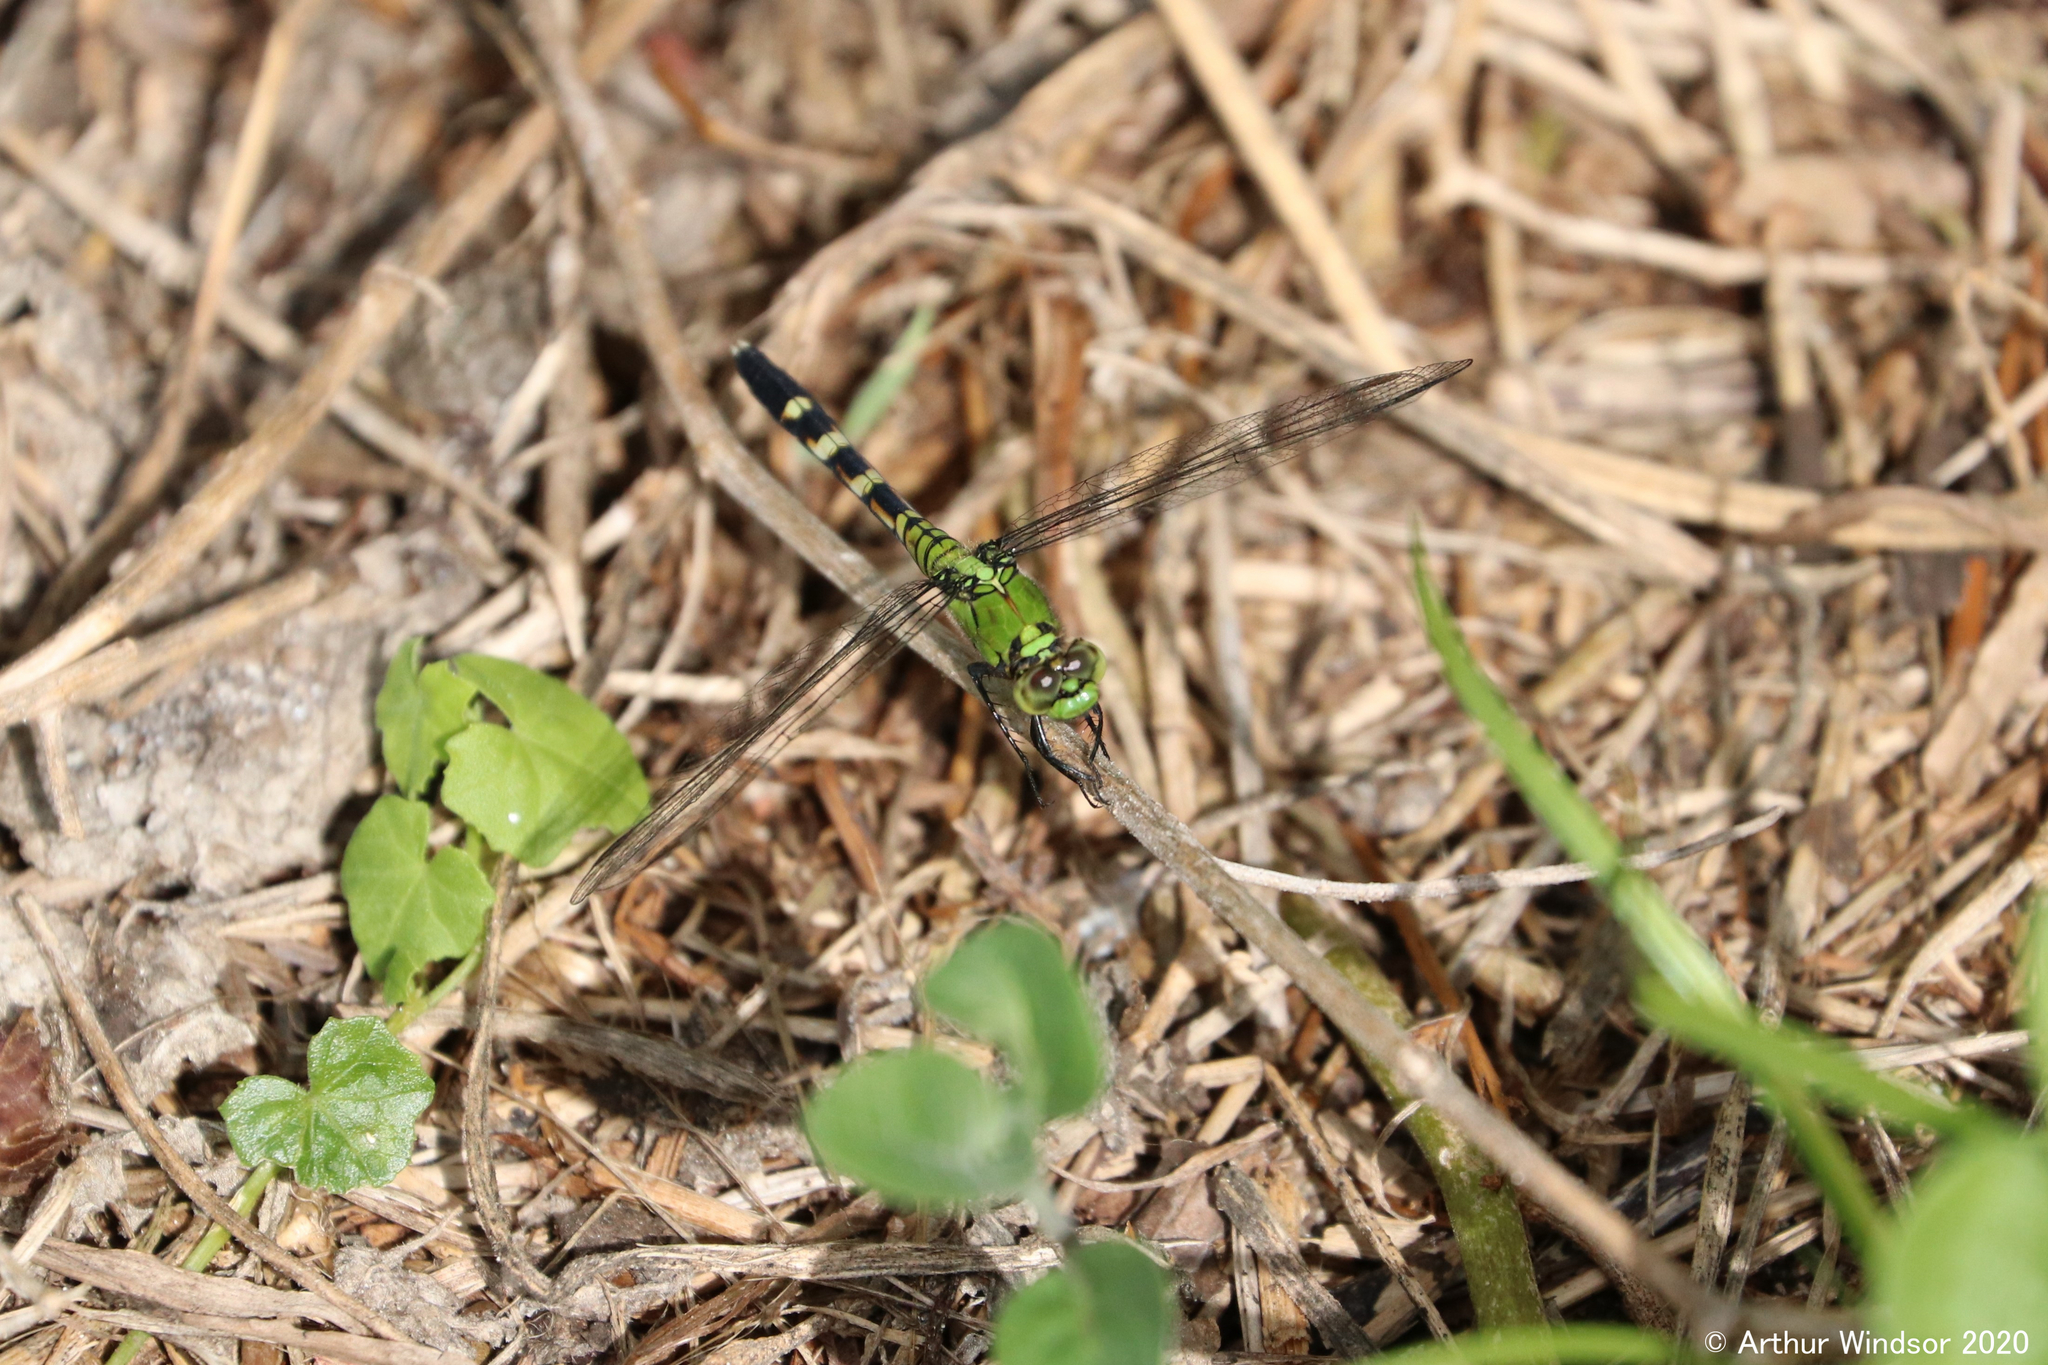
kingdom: Animalia
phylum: Arthropoda
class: Insecta
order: Odonata
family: Libellulidae
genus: Erythemis
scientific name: Erythemis simplicicollis
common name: Eastern pondhawk
